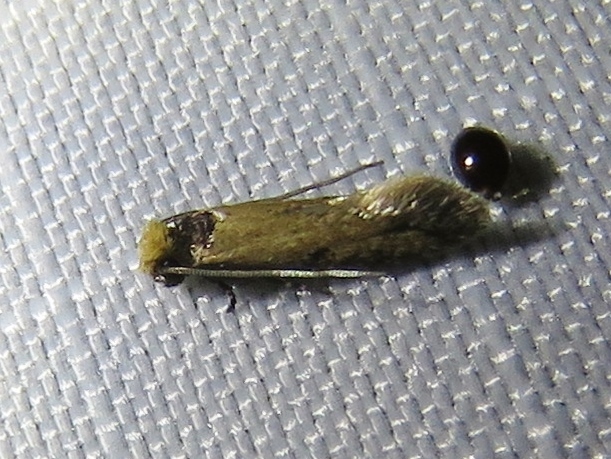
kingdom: Animalia
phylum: Arthropoda
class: Insecta
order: Lepidoptera
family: Meessiidae
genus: Homostinea
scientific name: Homostinea curviliniella
